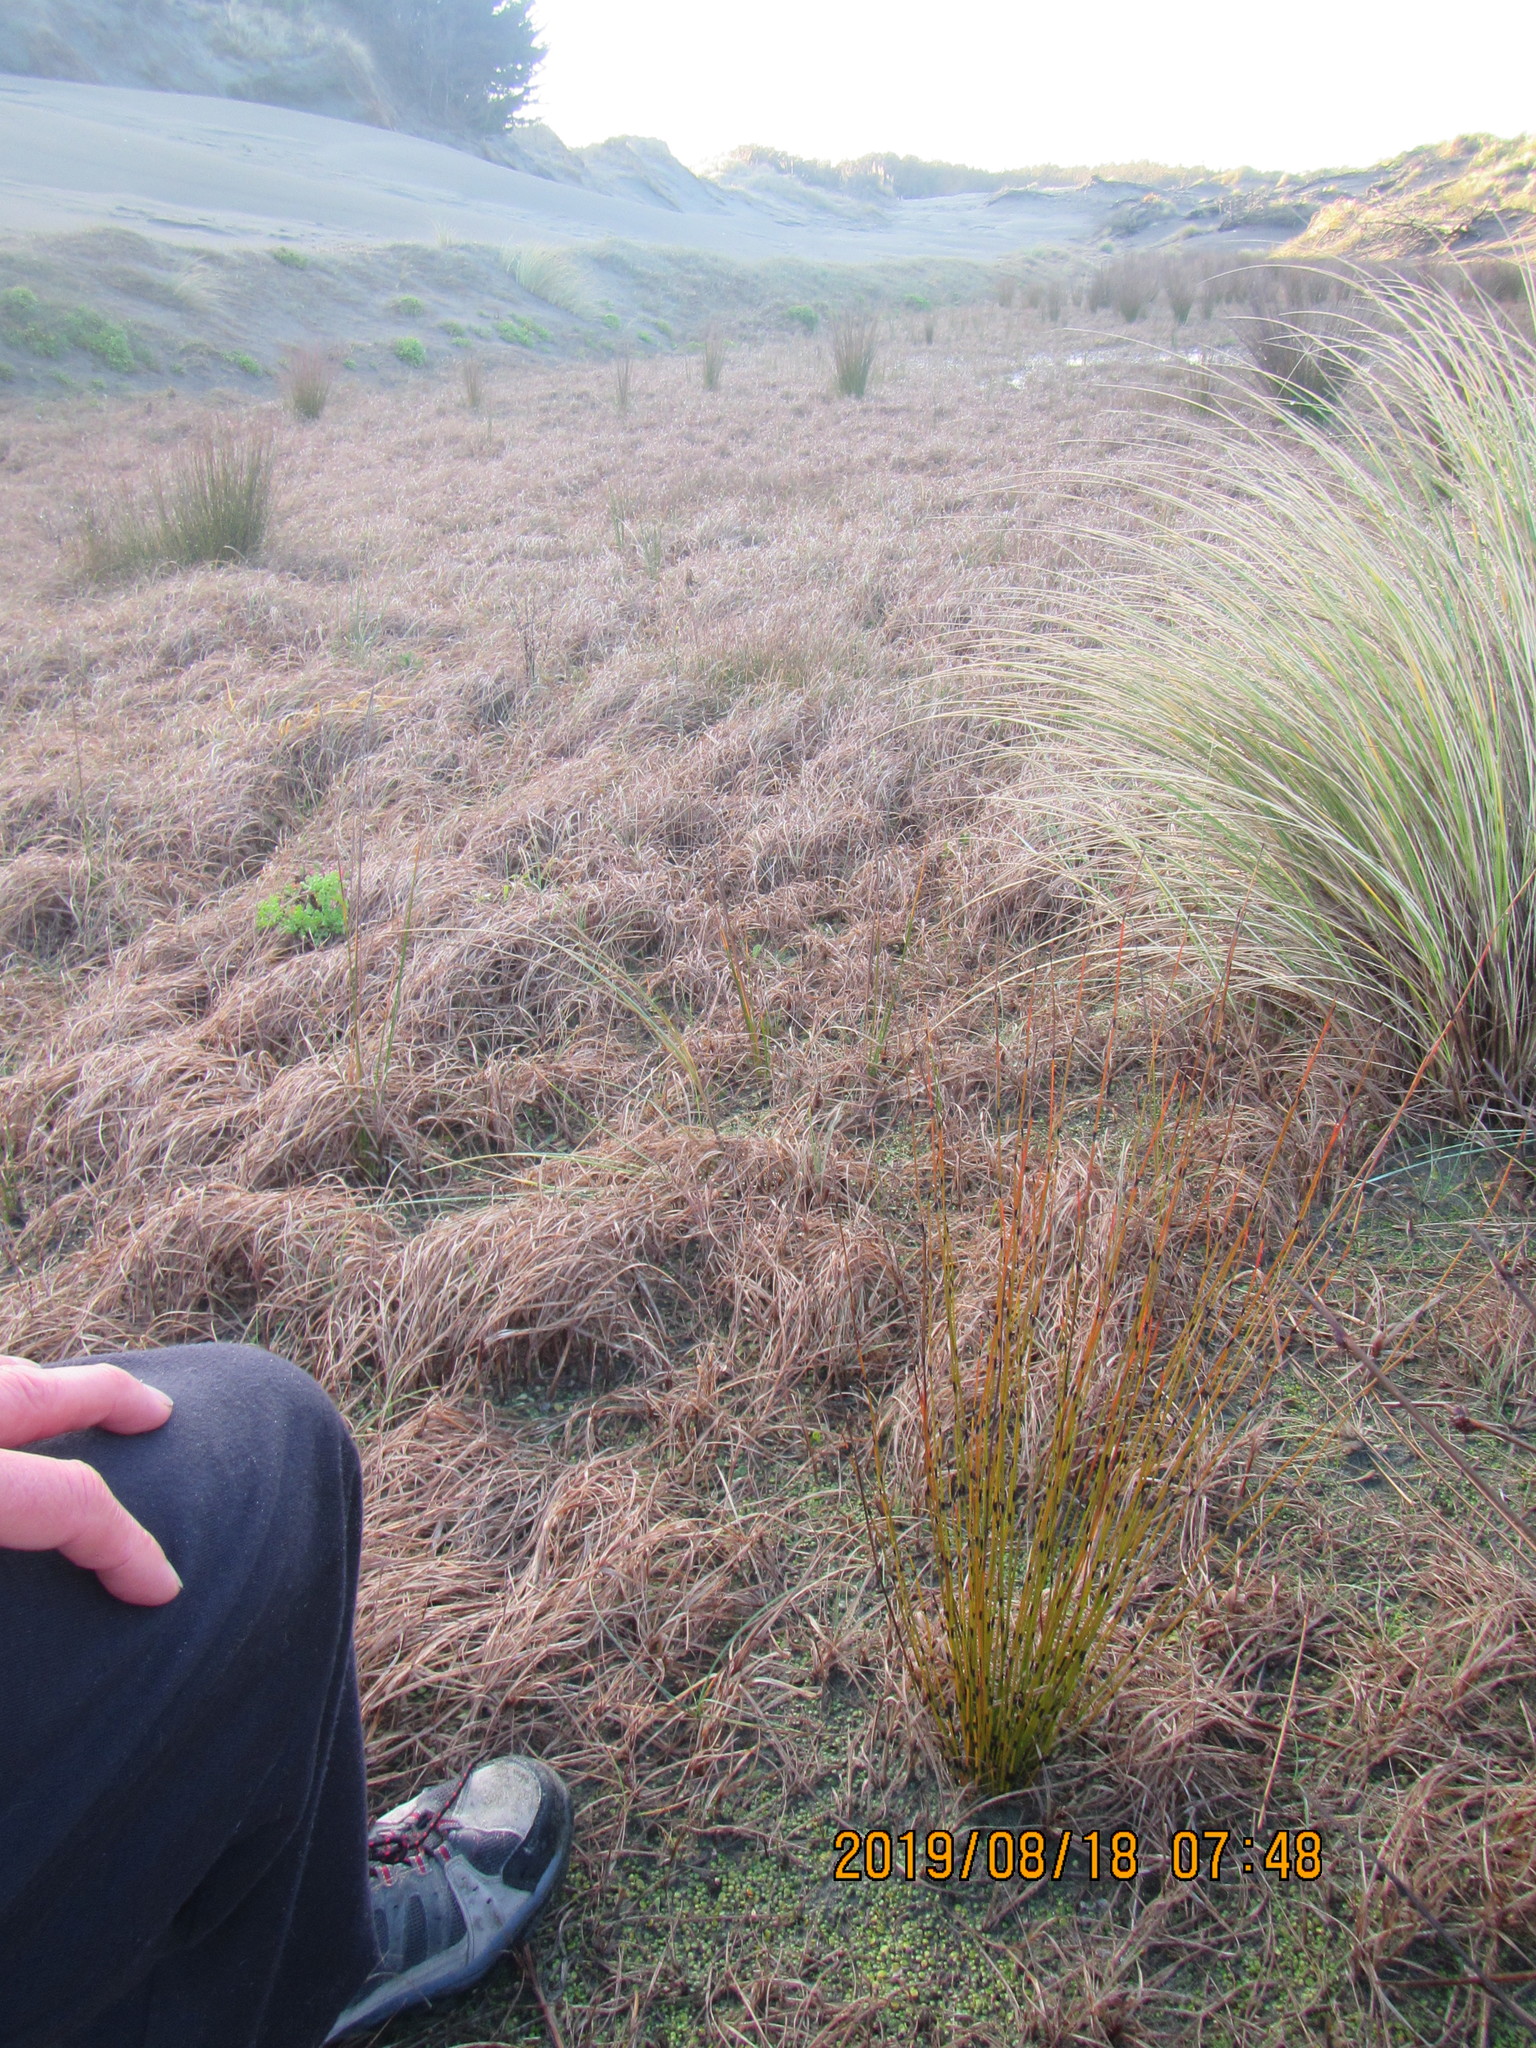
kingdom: Plantae
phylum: Tracheophyta
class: Liliopsida
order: Poales
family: Restionaceae
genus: Apodasmia
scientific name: Apodasmia similis
